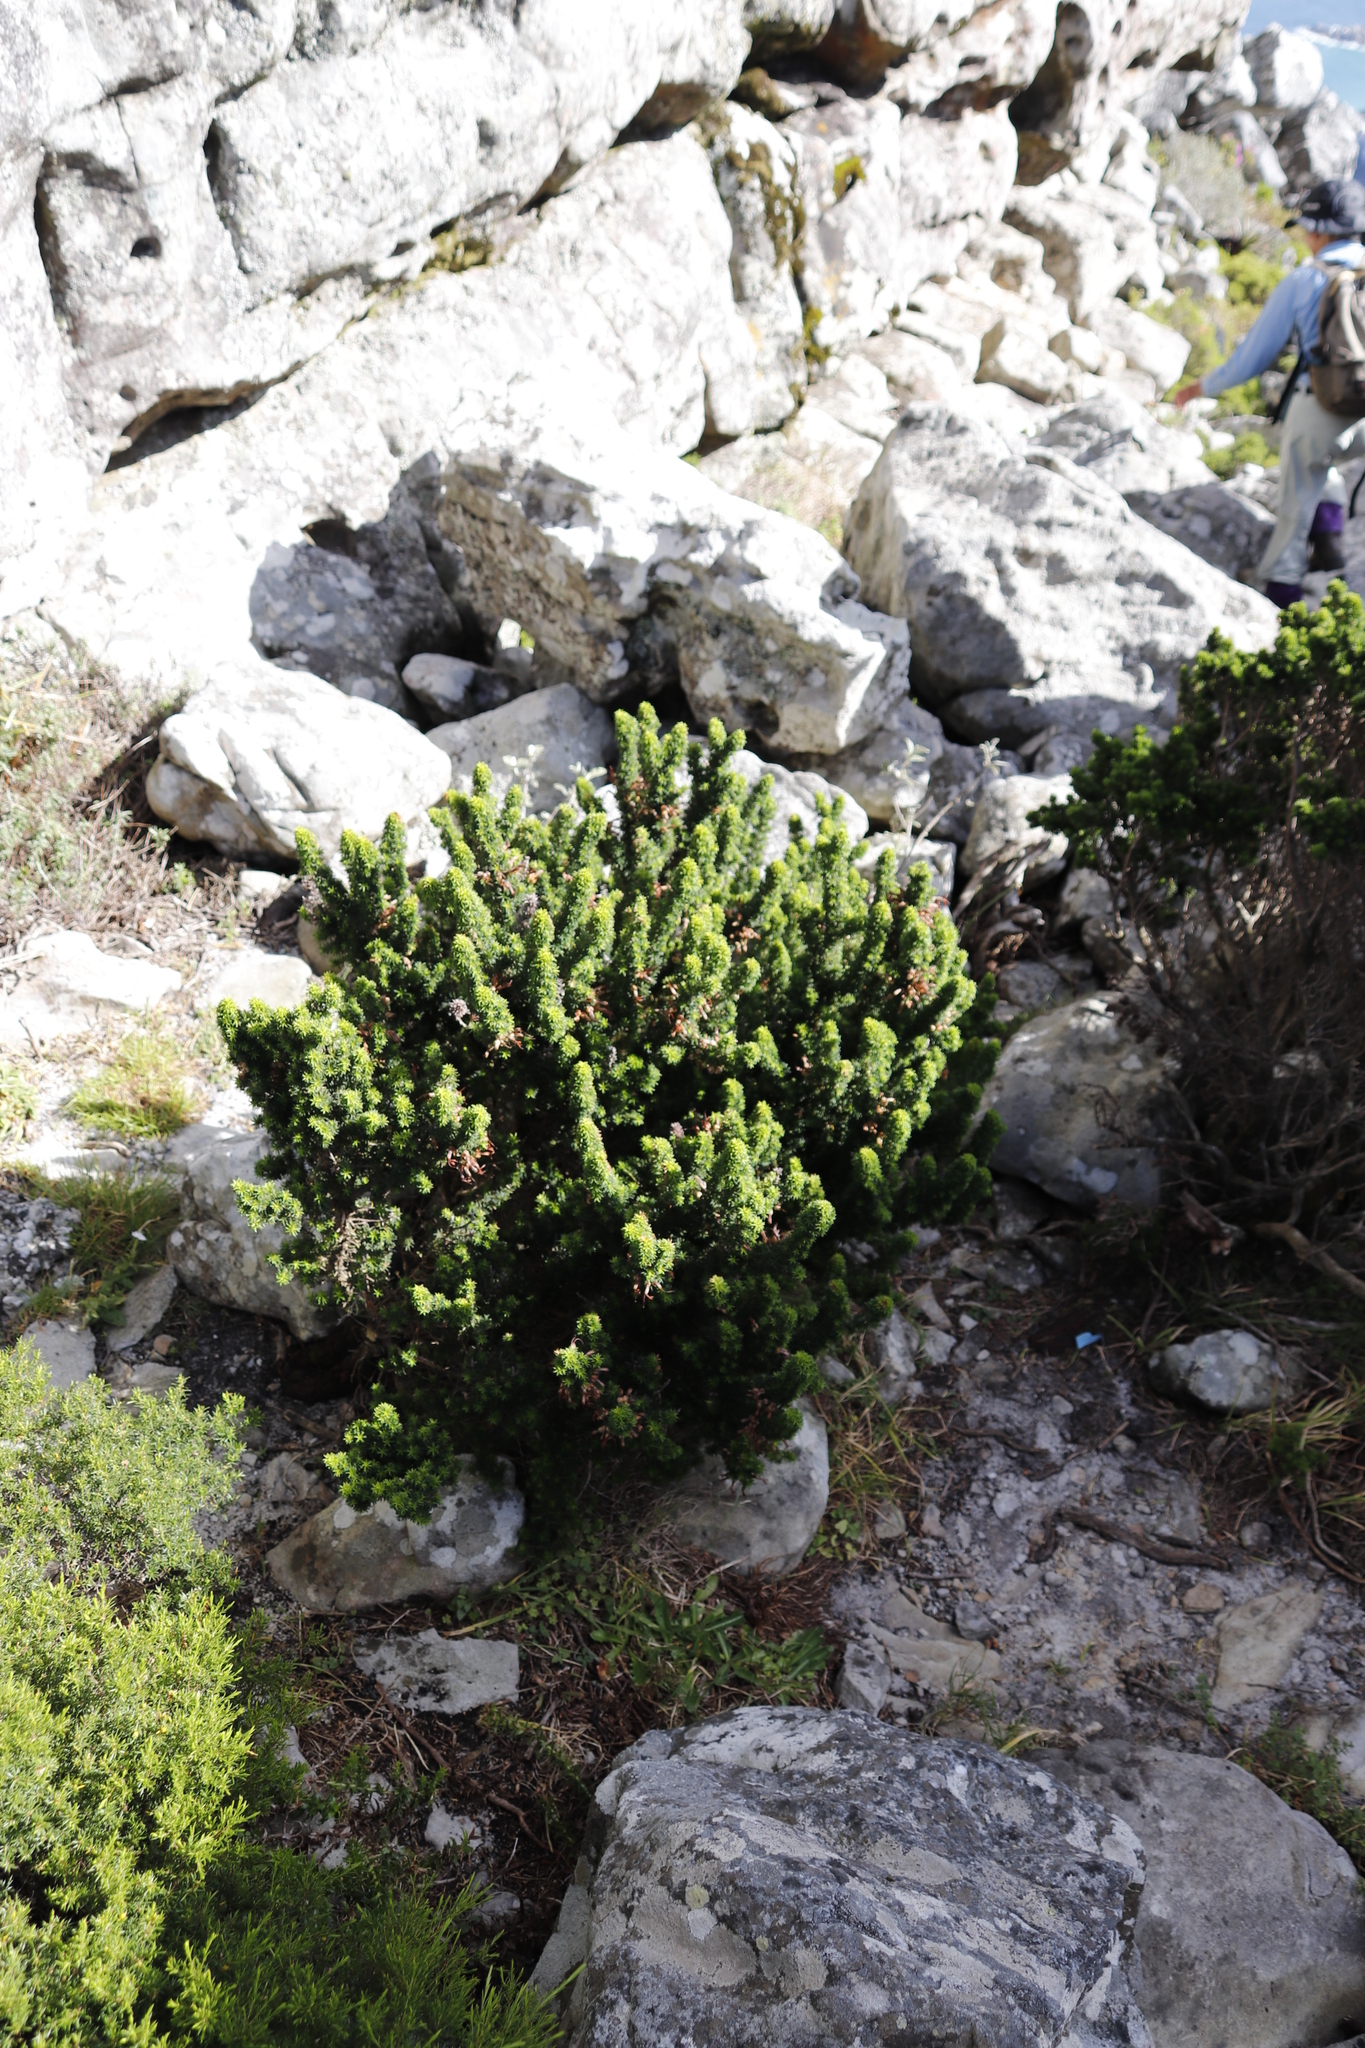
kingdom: Plantae
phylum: Tracheophyta
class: Magnoliopsida
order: Ericales
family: Ericaceae
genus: Erica
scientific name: Erica coccinea
